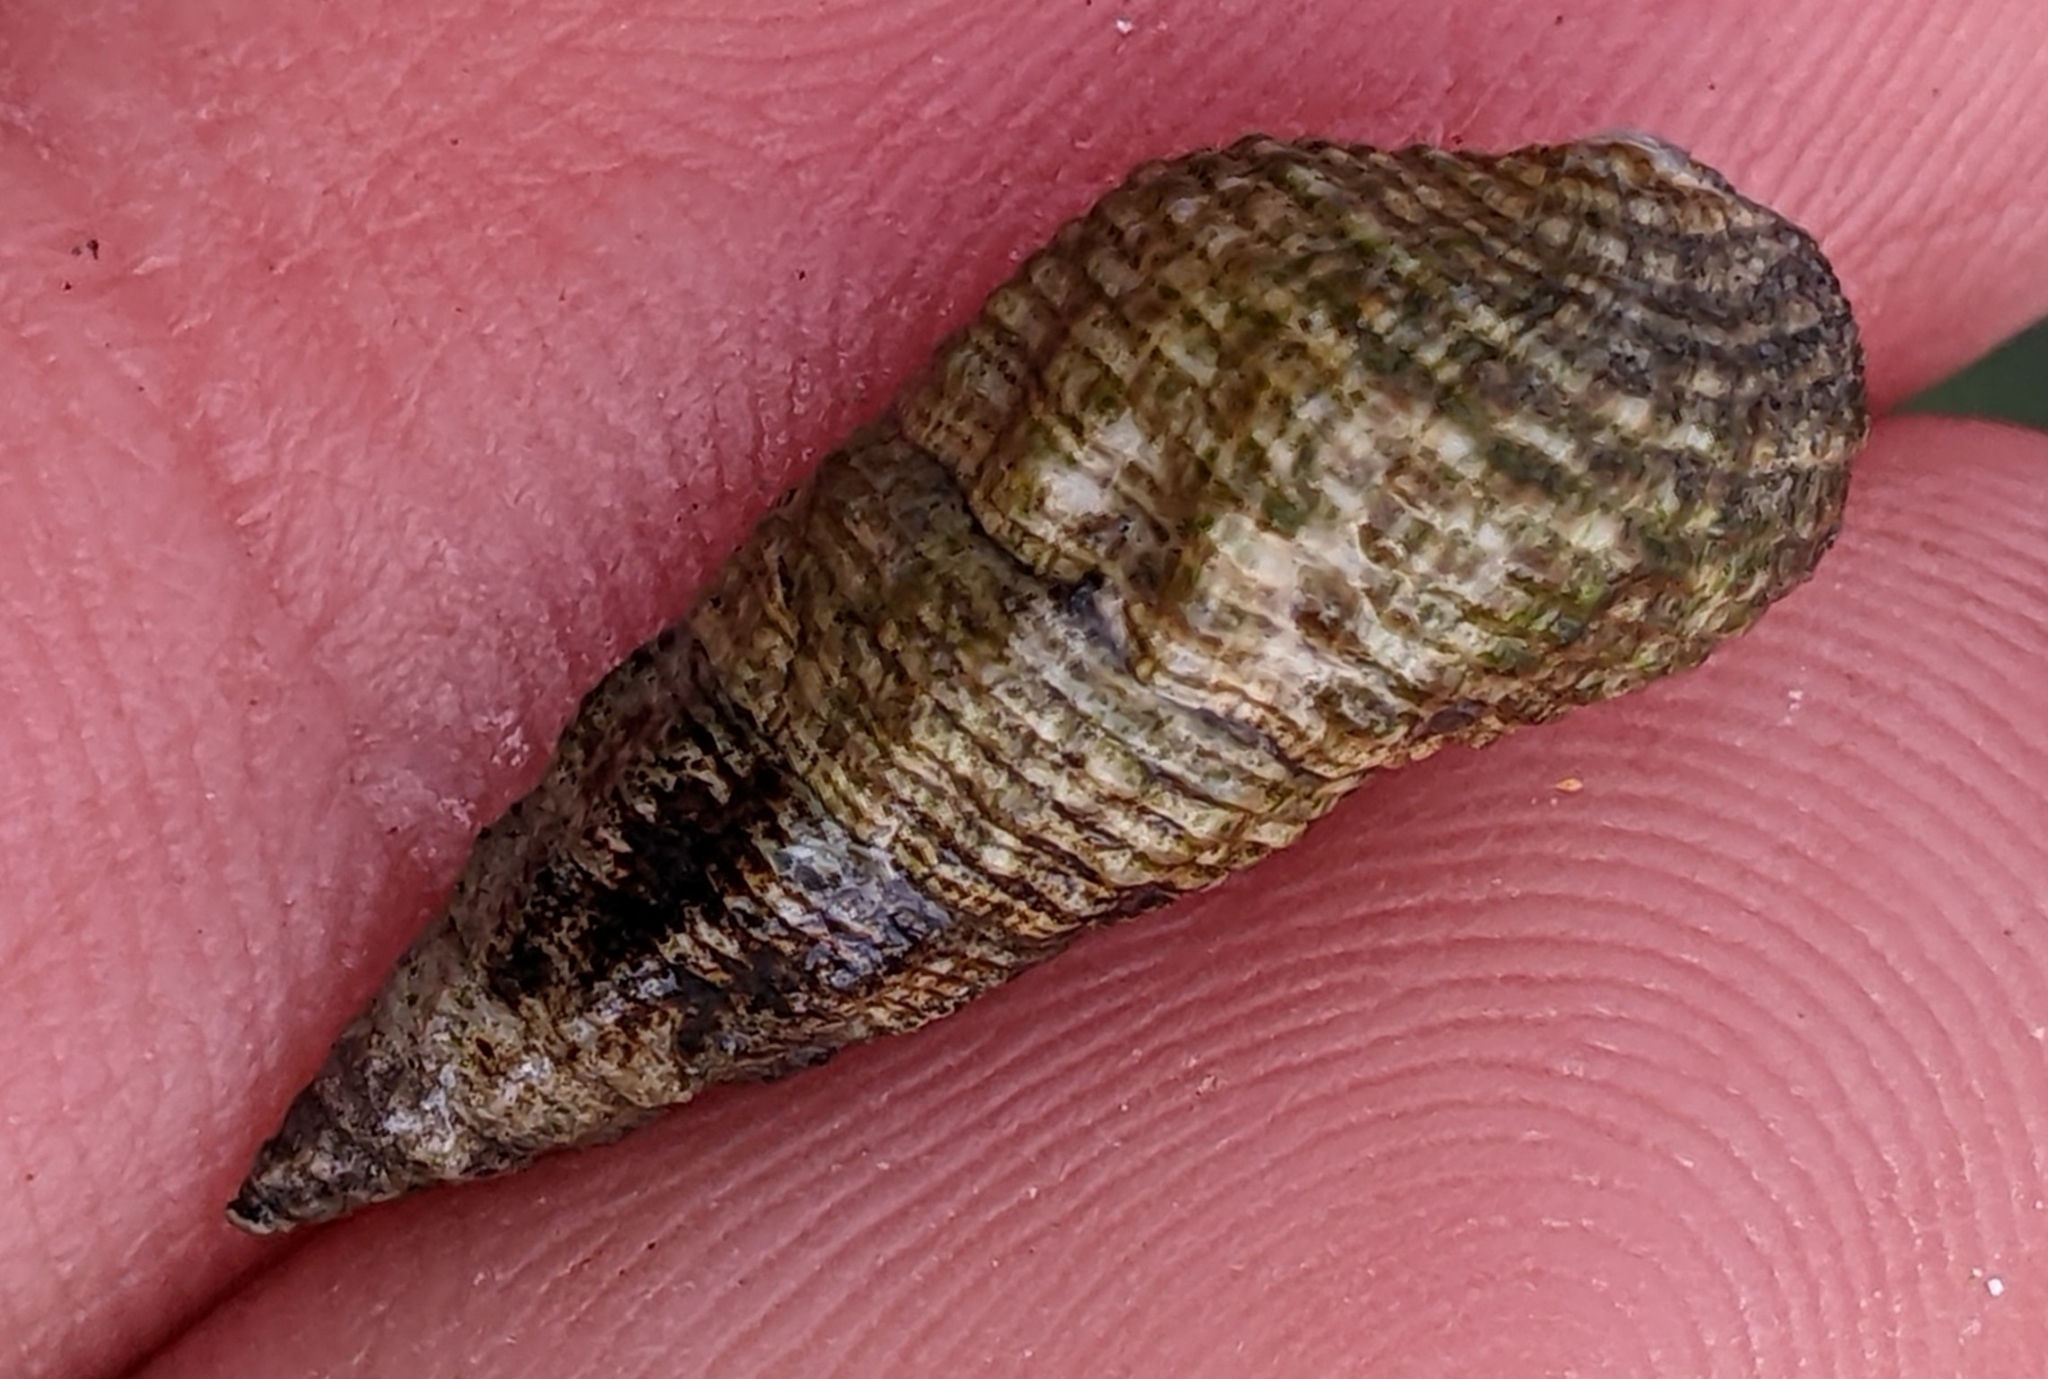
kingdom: Animalia
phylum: Mollusca
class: Gastropoda
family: Batillariidae
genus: Batillaria
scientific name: Batillaria attramentaria
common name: Japanese false cerith
